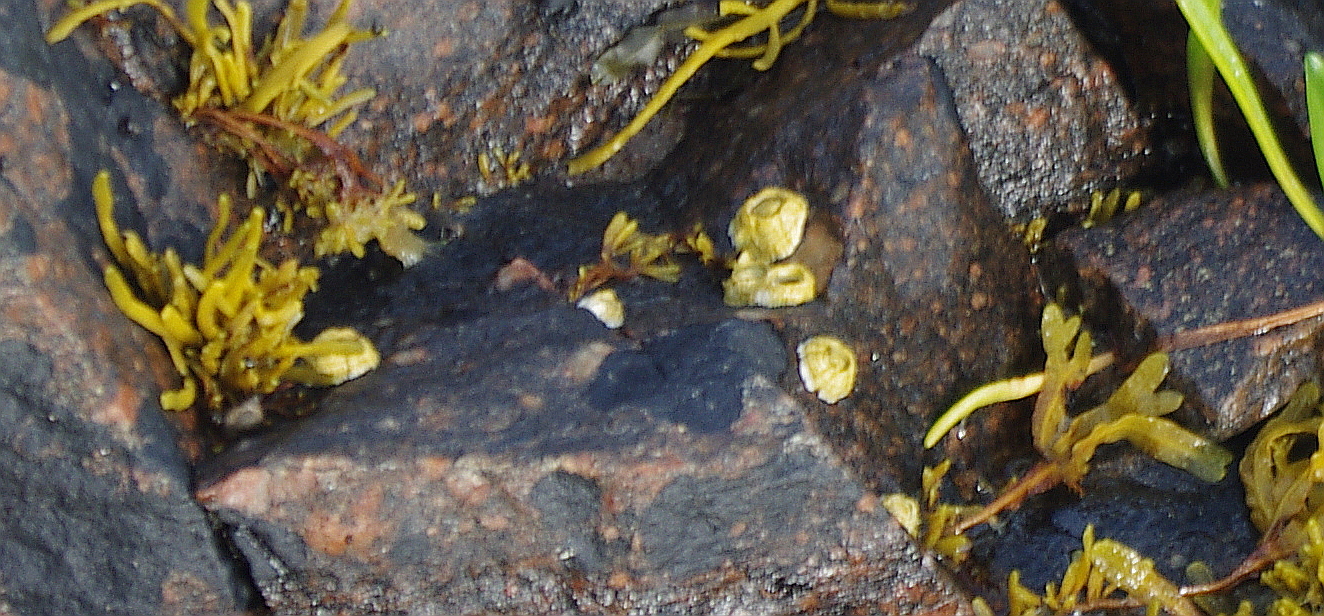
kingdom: Animalia
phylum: Arthropoda
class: Maxillopoda
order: Sessilia
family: Archaeobalanidae
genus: Semibalanus
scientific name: Semibalanus balanoides
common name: Acorn barnacle
